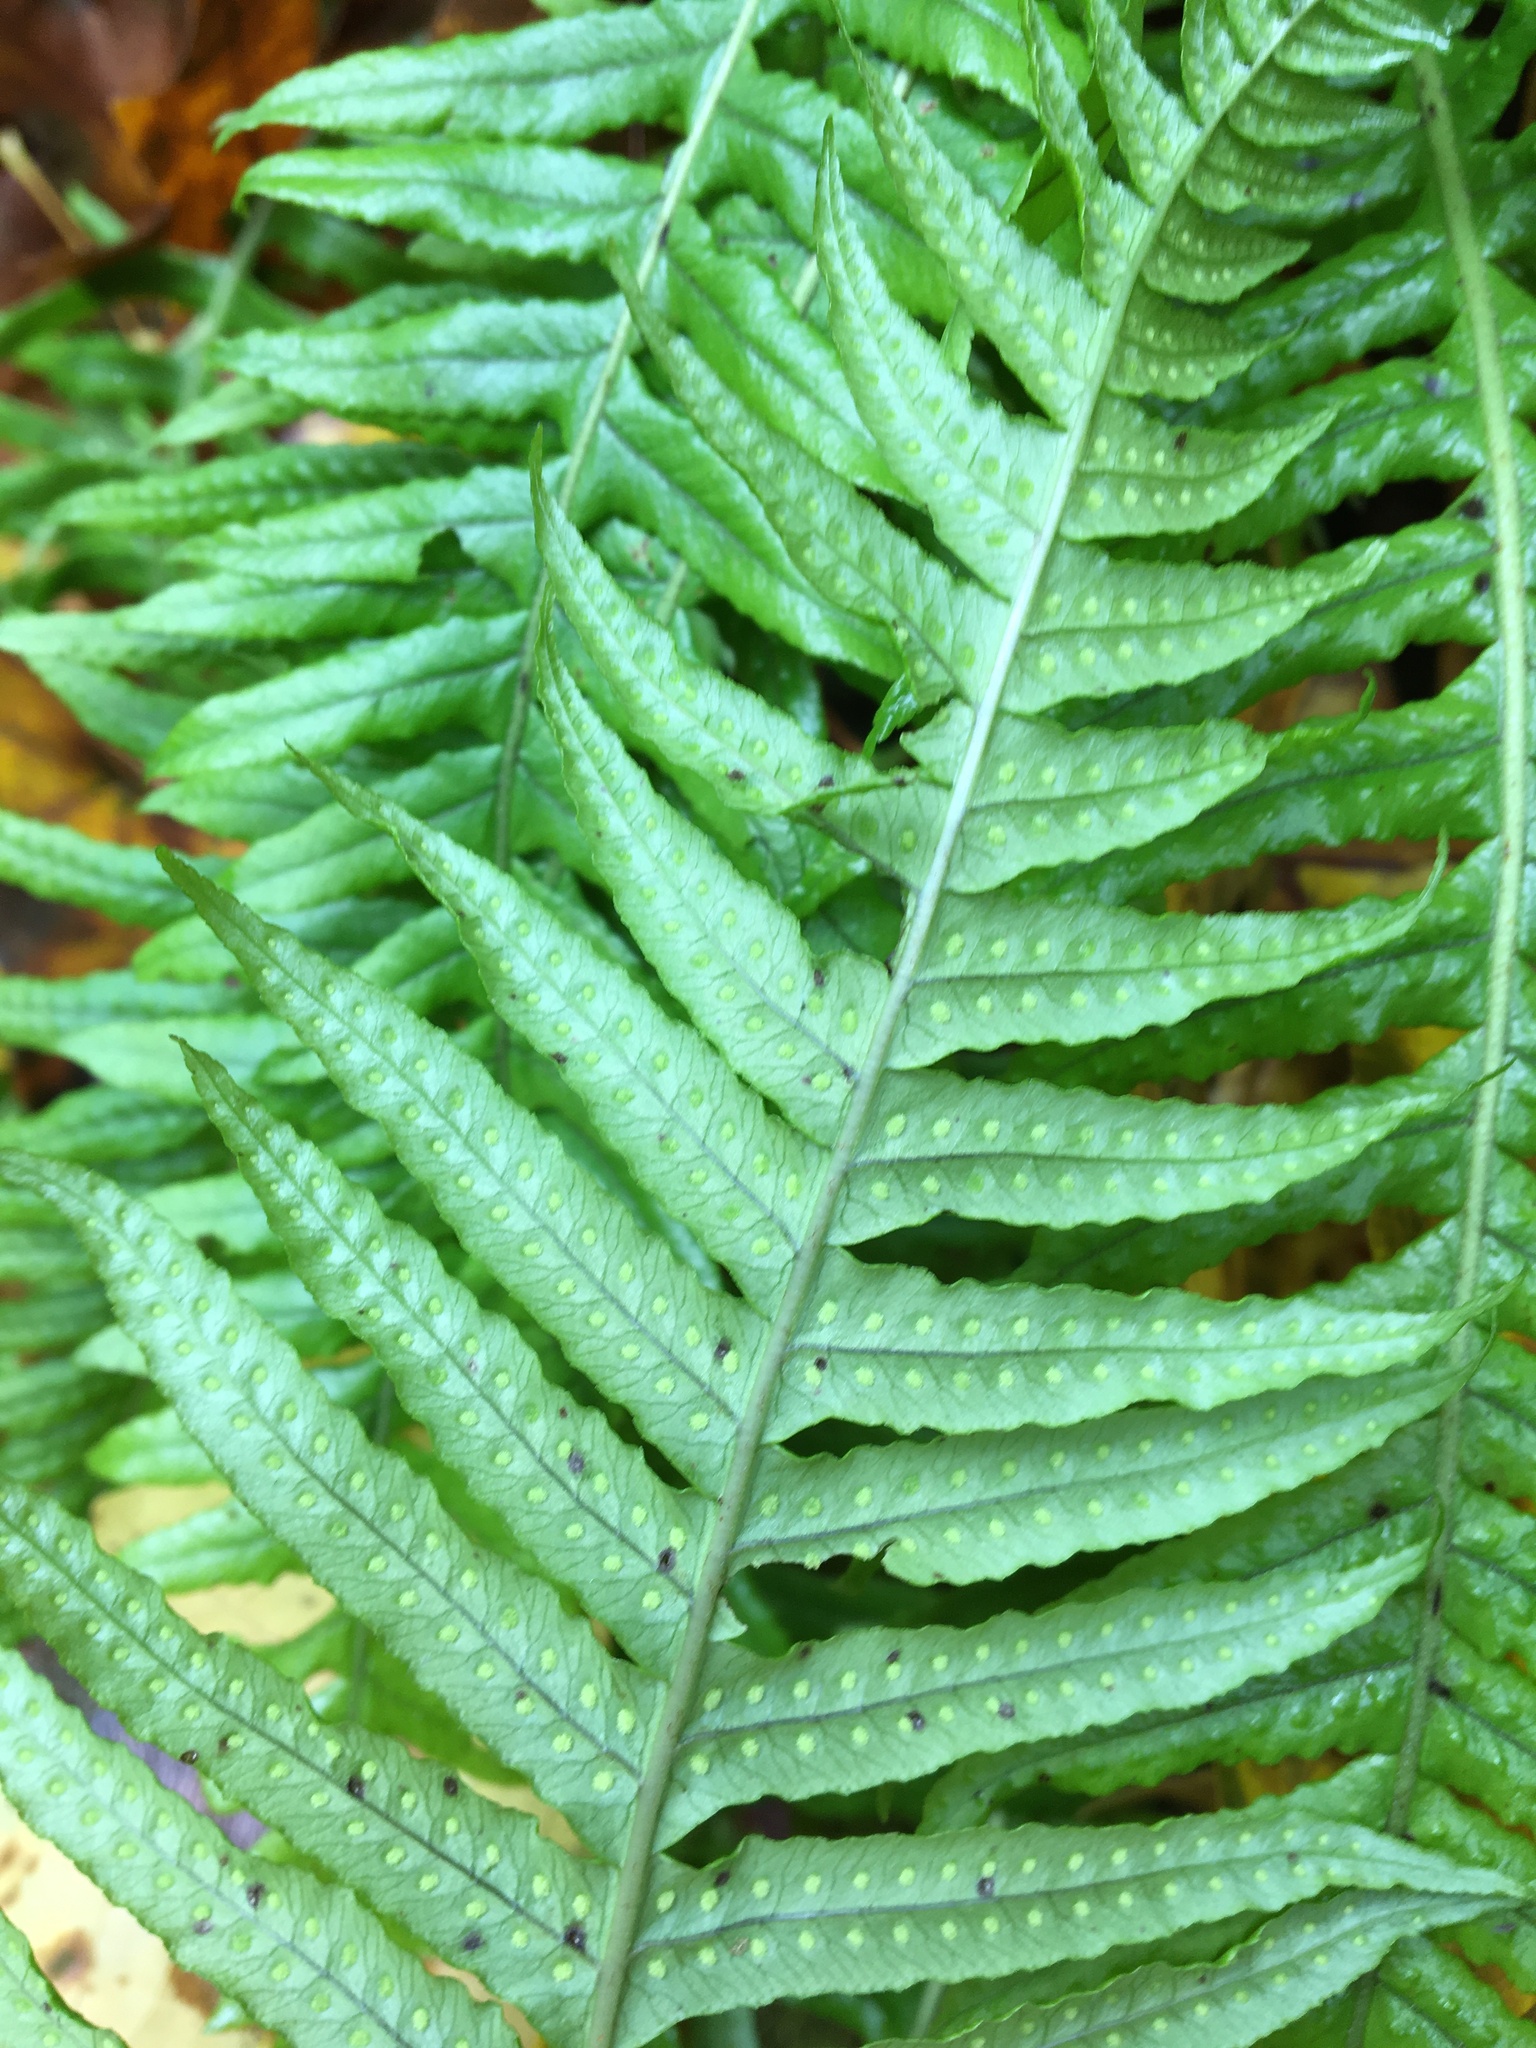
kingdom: Plantae
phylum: Tracheophyta
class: Polypodiopsida
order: Polypodiales
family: Polypodiaceae
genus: Polypodium
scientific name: Polypodium glycyrrhiza
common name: Licorice fern
